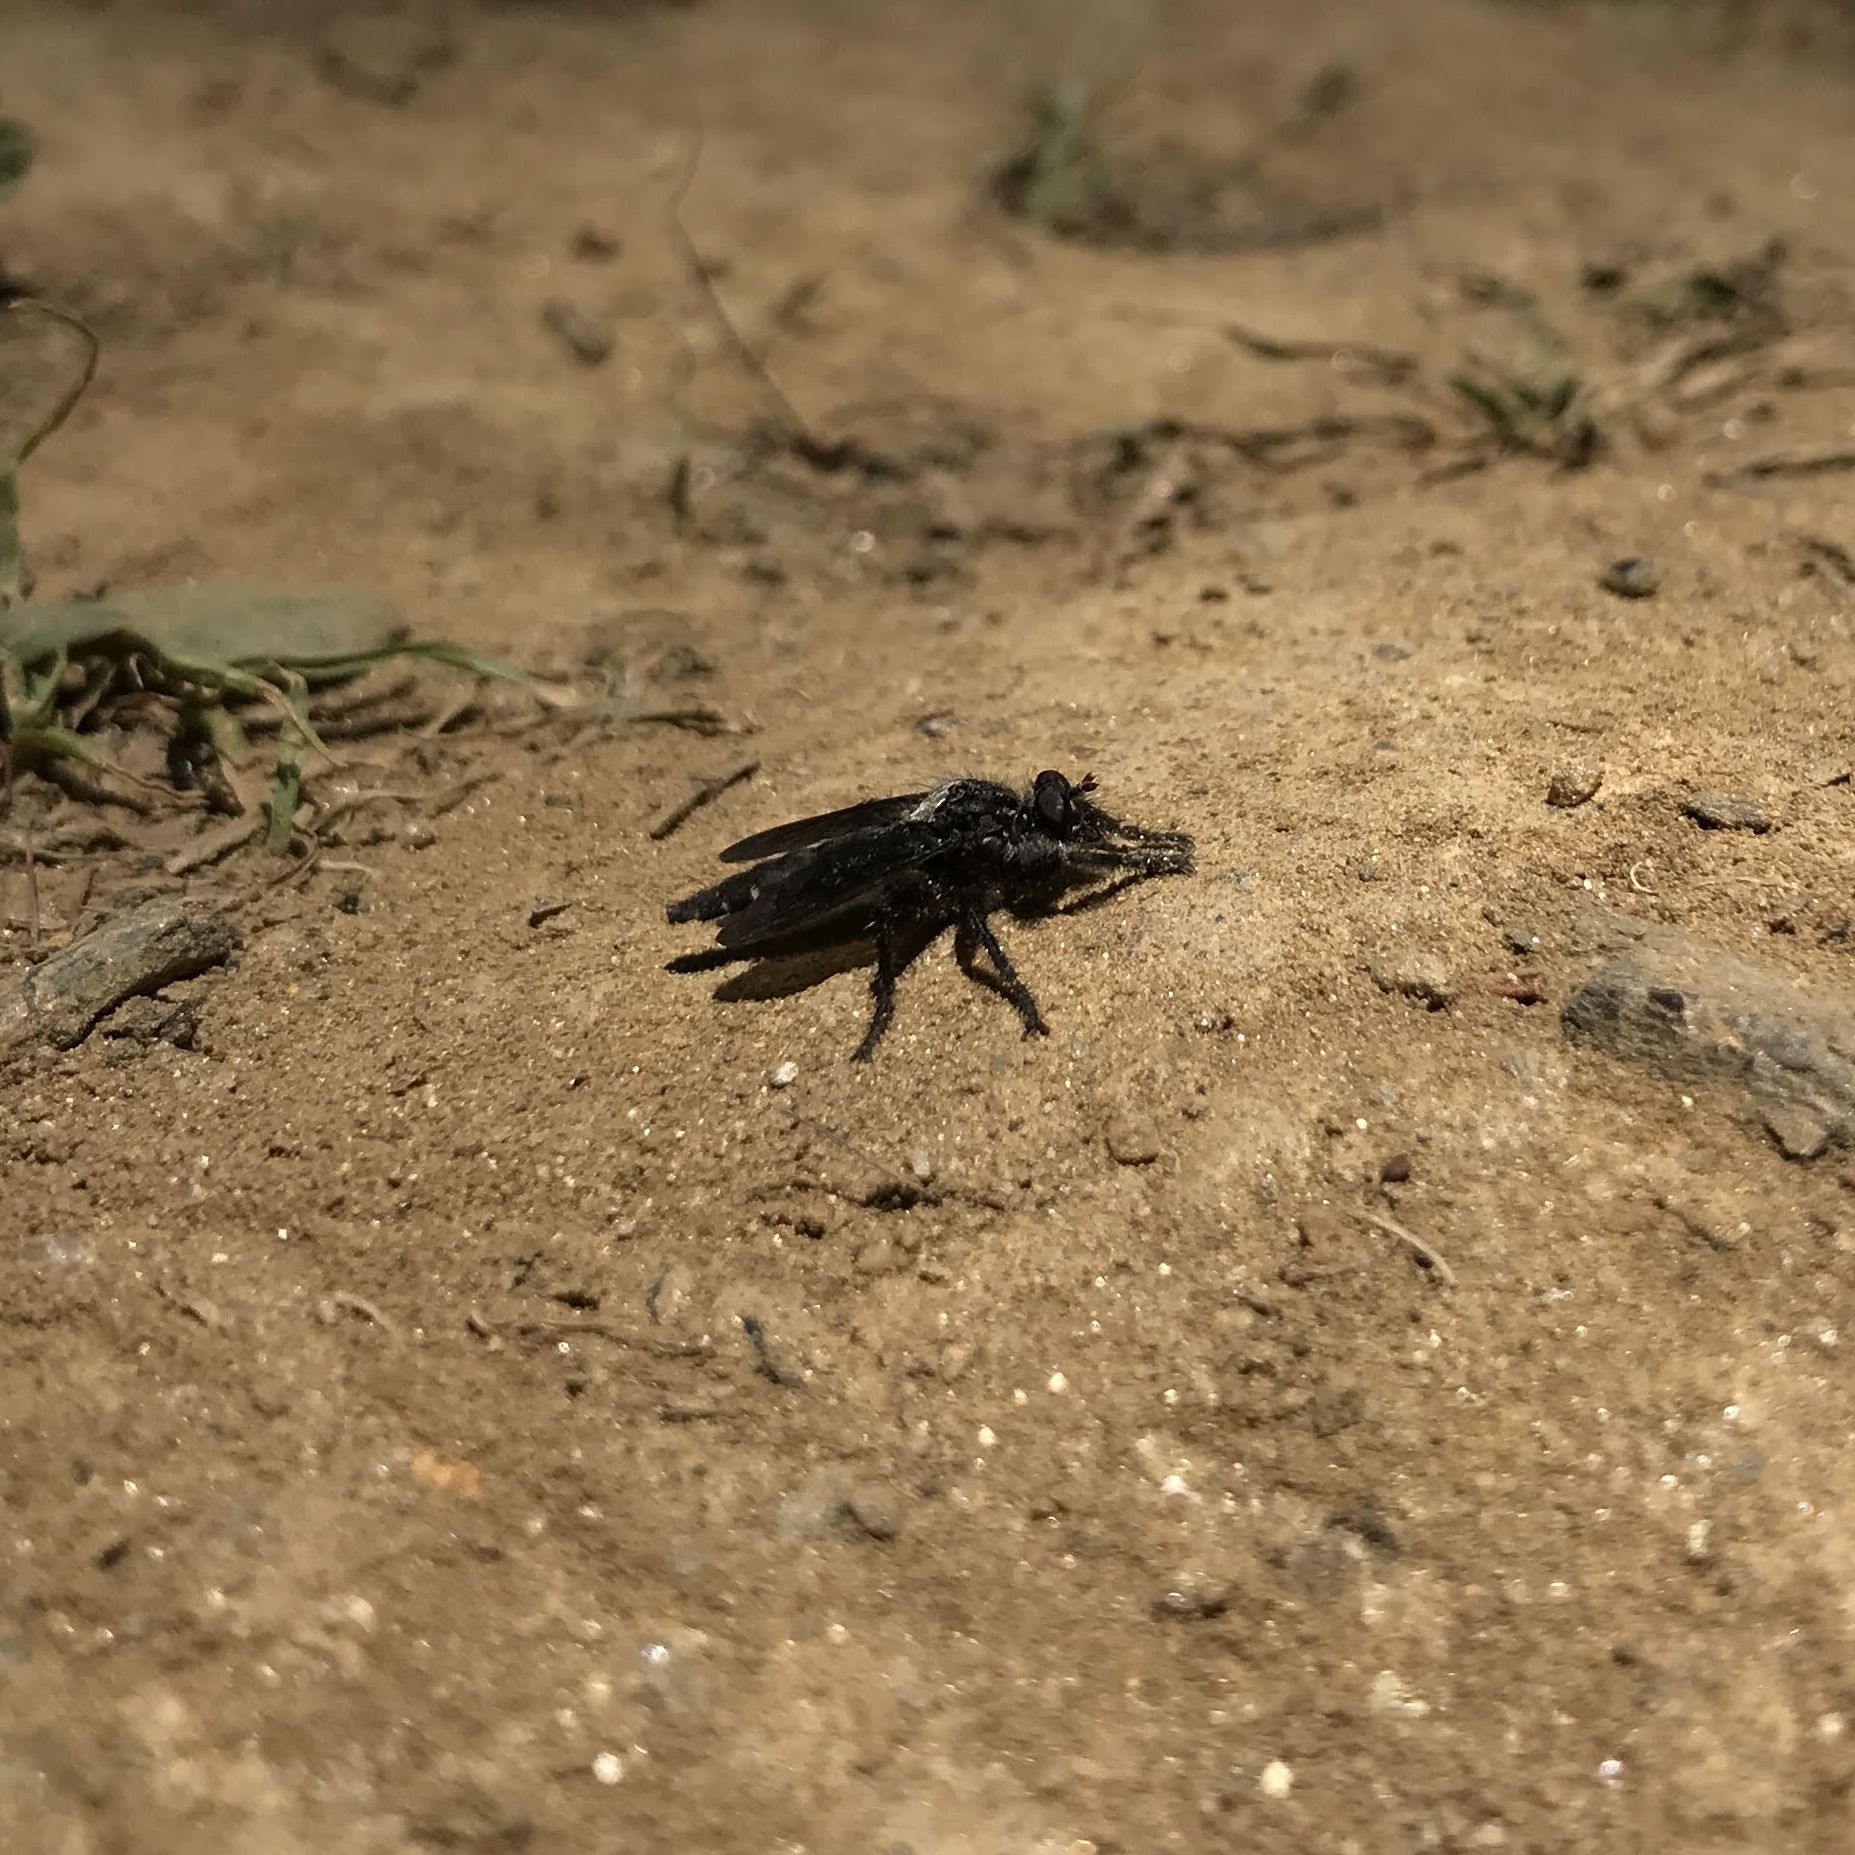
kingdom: Animalia
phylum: Arthropoda
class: Insecta
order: Diptera
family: Asilidae
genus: Pritchardia
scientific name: Pritchardia hirtipes
